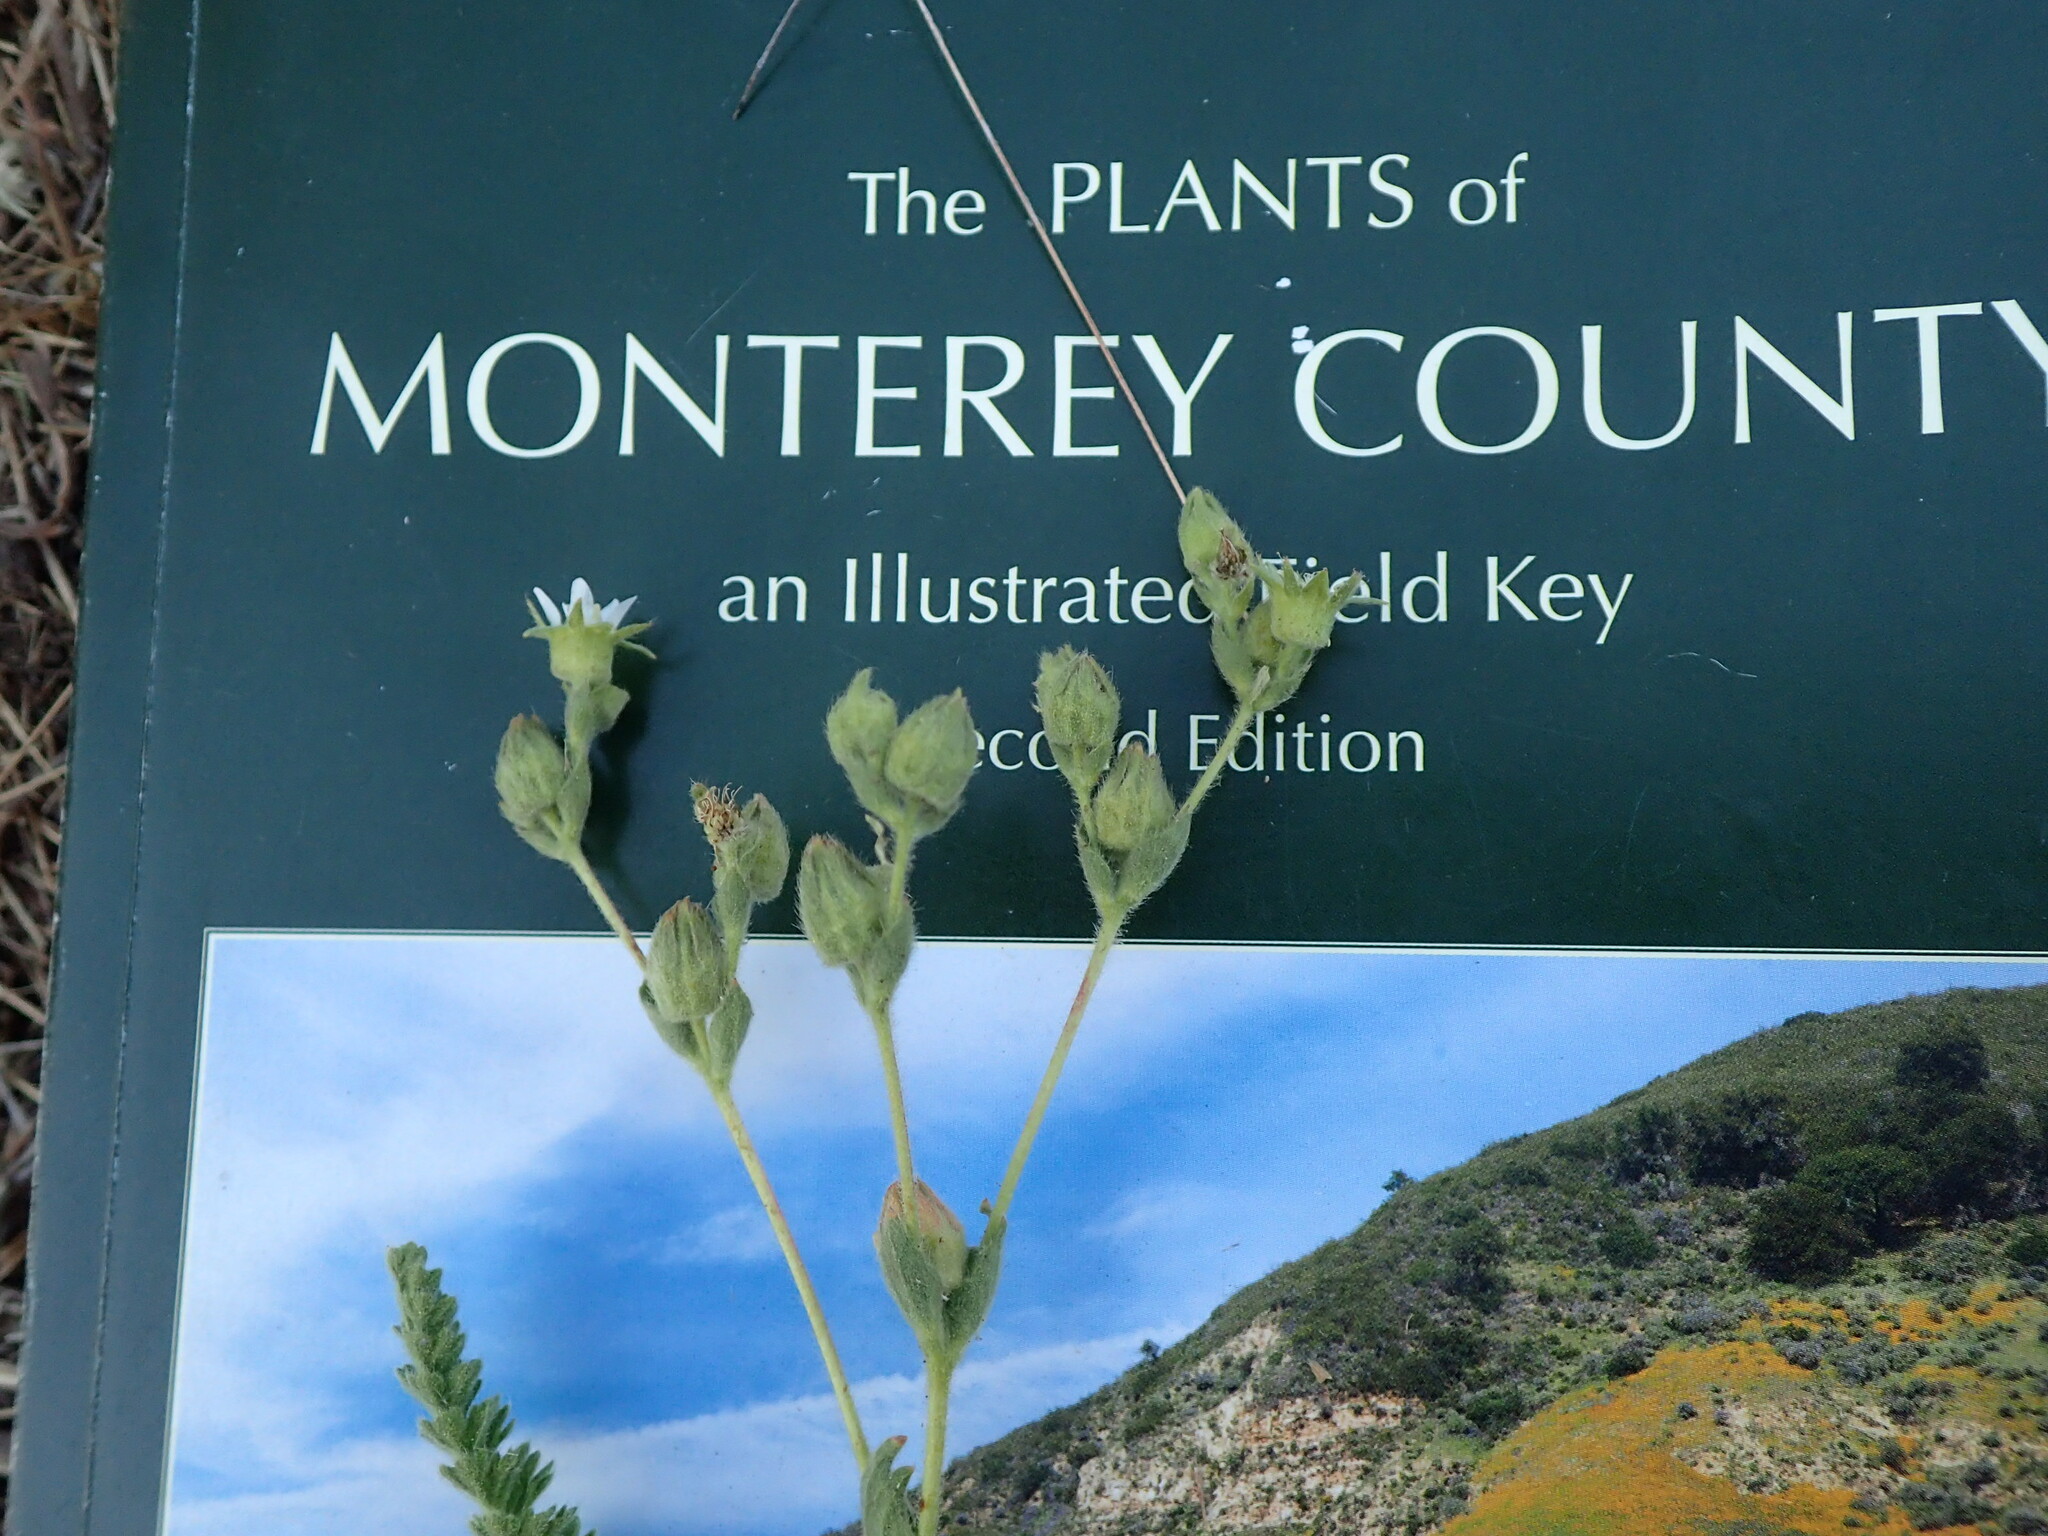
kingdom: Plantae
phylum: Tracheophyta
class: Magnoliopsida
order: Rosales
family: Rosaceae
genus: Potentilla
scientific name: Potentilla yadonii
